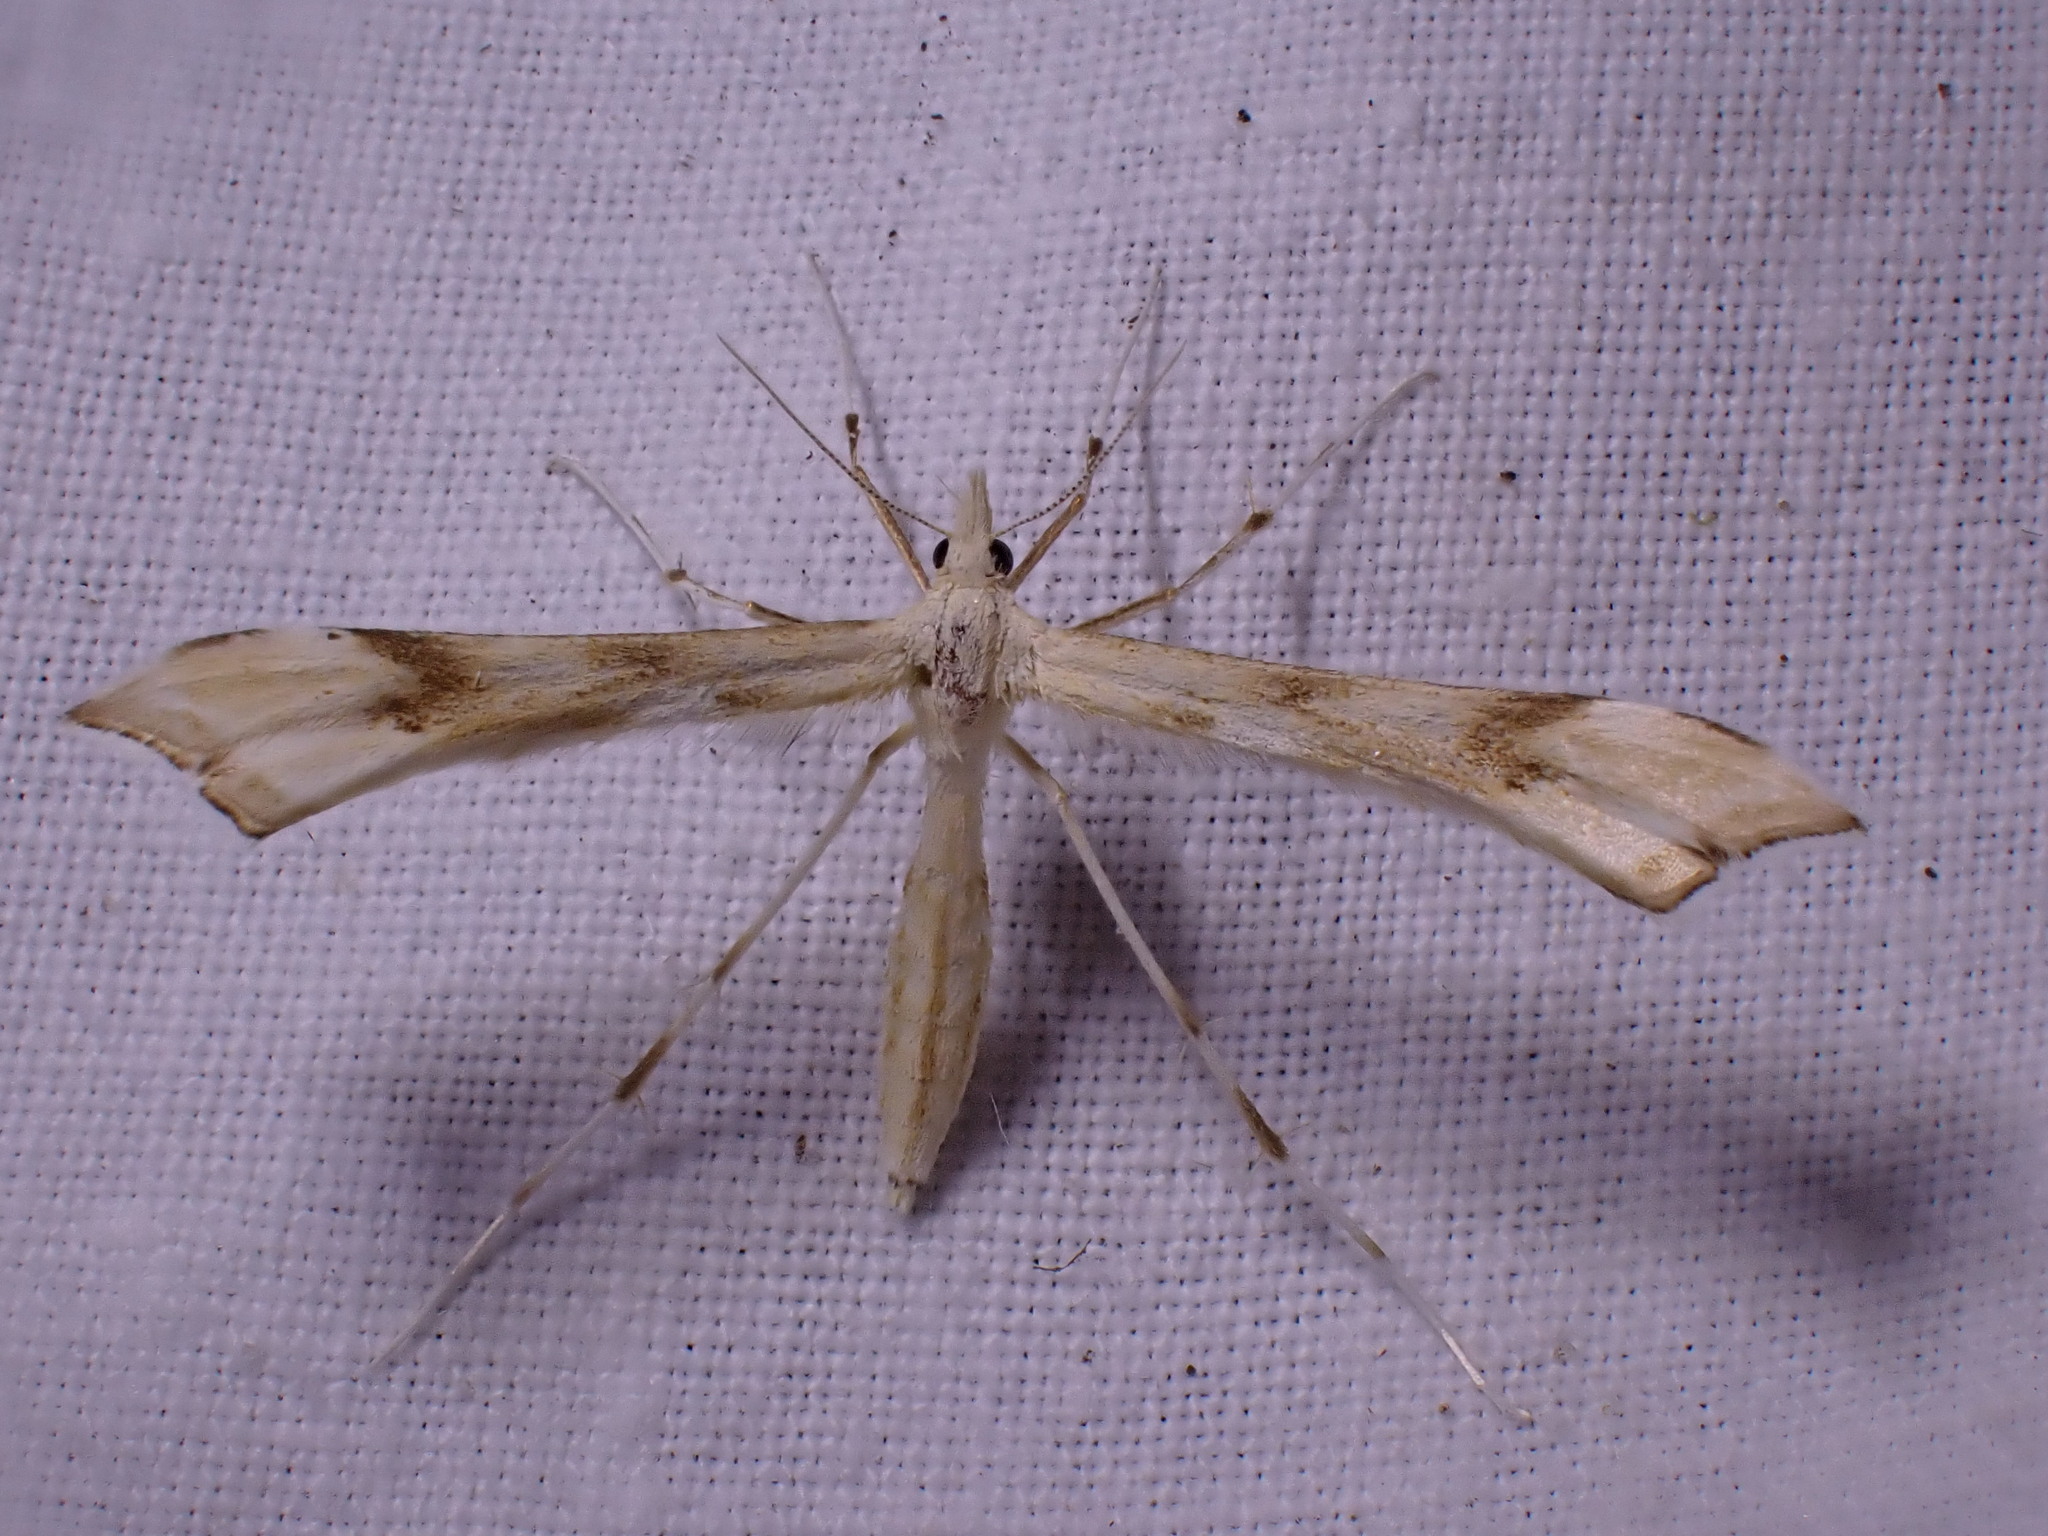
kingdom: Animalia
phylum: Arthropoda
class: Insecta
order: Lepidoptera
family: Pterophoridae
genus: Gillmeria
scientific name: Gillmeria pallidactyla
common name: Yarrow plume
